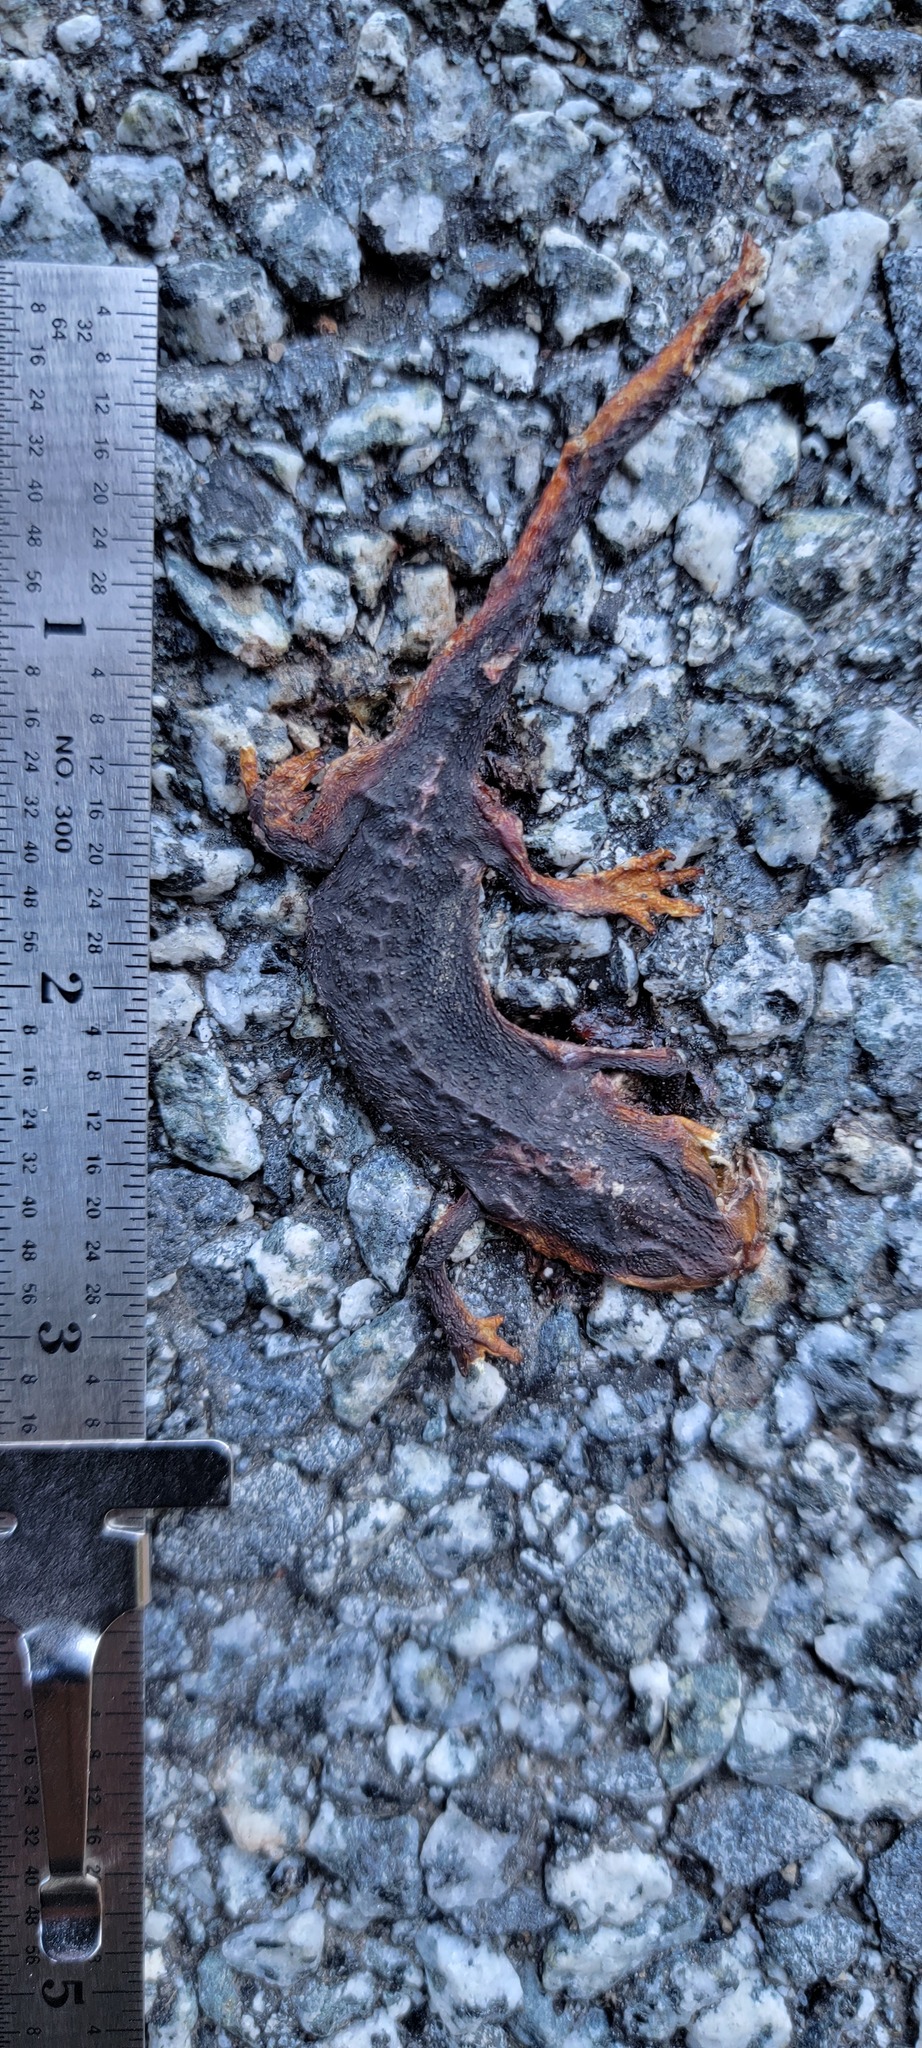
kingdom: Animalia
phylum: Chordata
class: Amphibia
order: Caudata
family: Salamandridae
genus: Taricha
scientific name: Taricha
